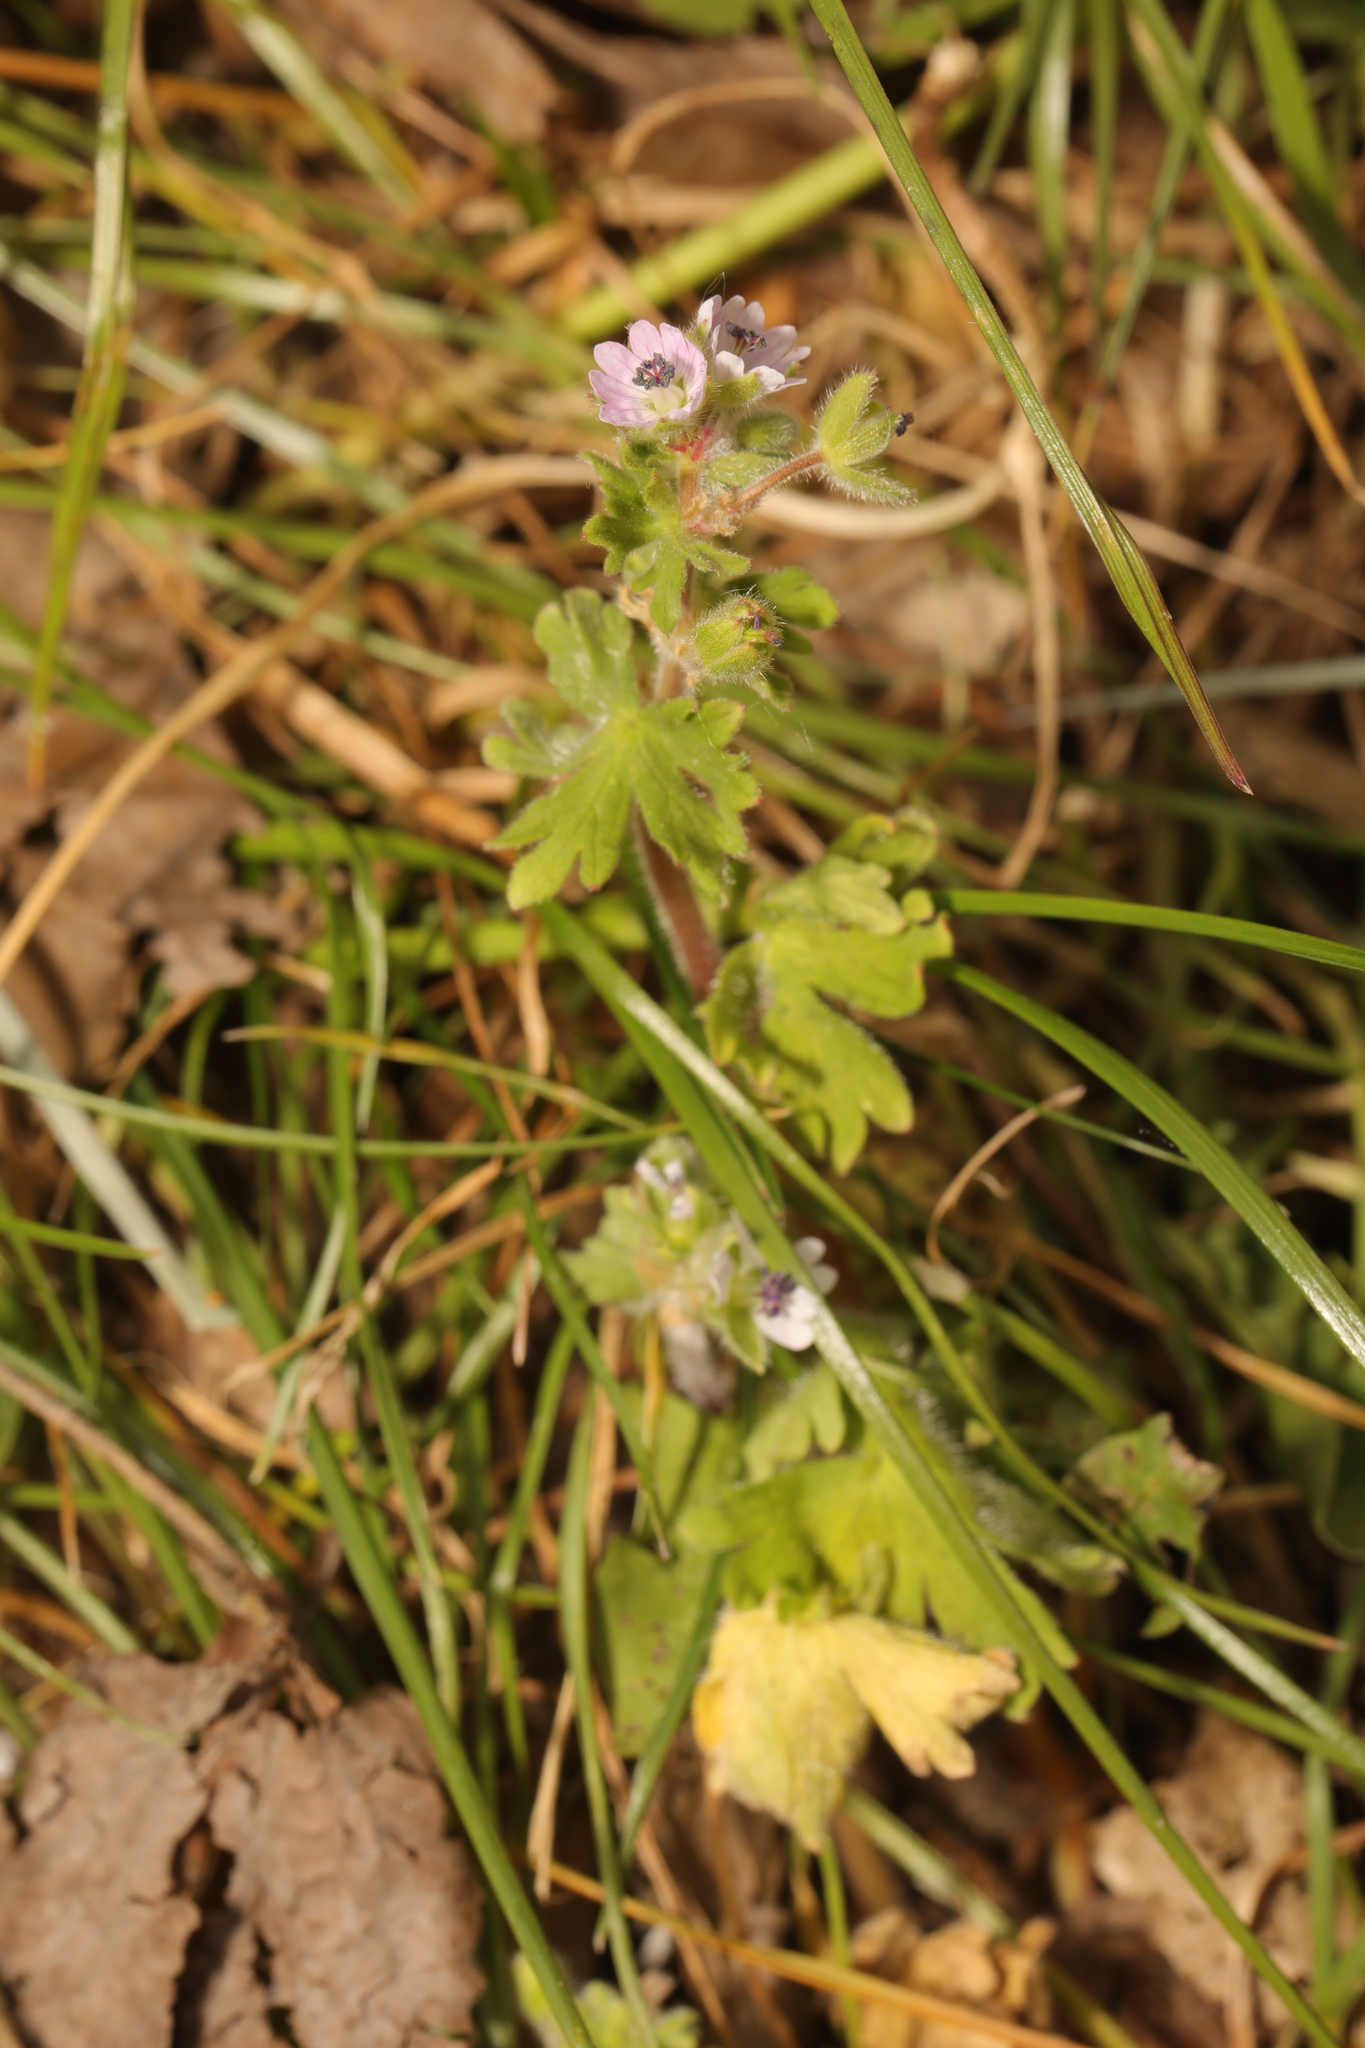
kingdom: Plantae
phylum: Tracheophyta
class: Magnoliopsida
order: Geraniales
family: Geraniaceae
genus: Geranium
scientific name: Geranium molle
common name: Dove's-foot crane's-bill
